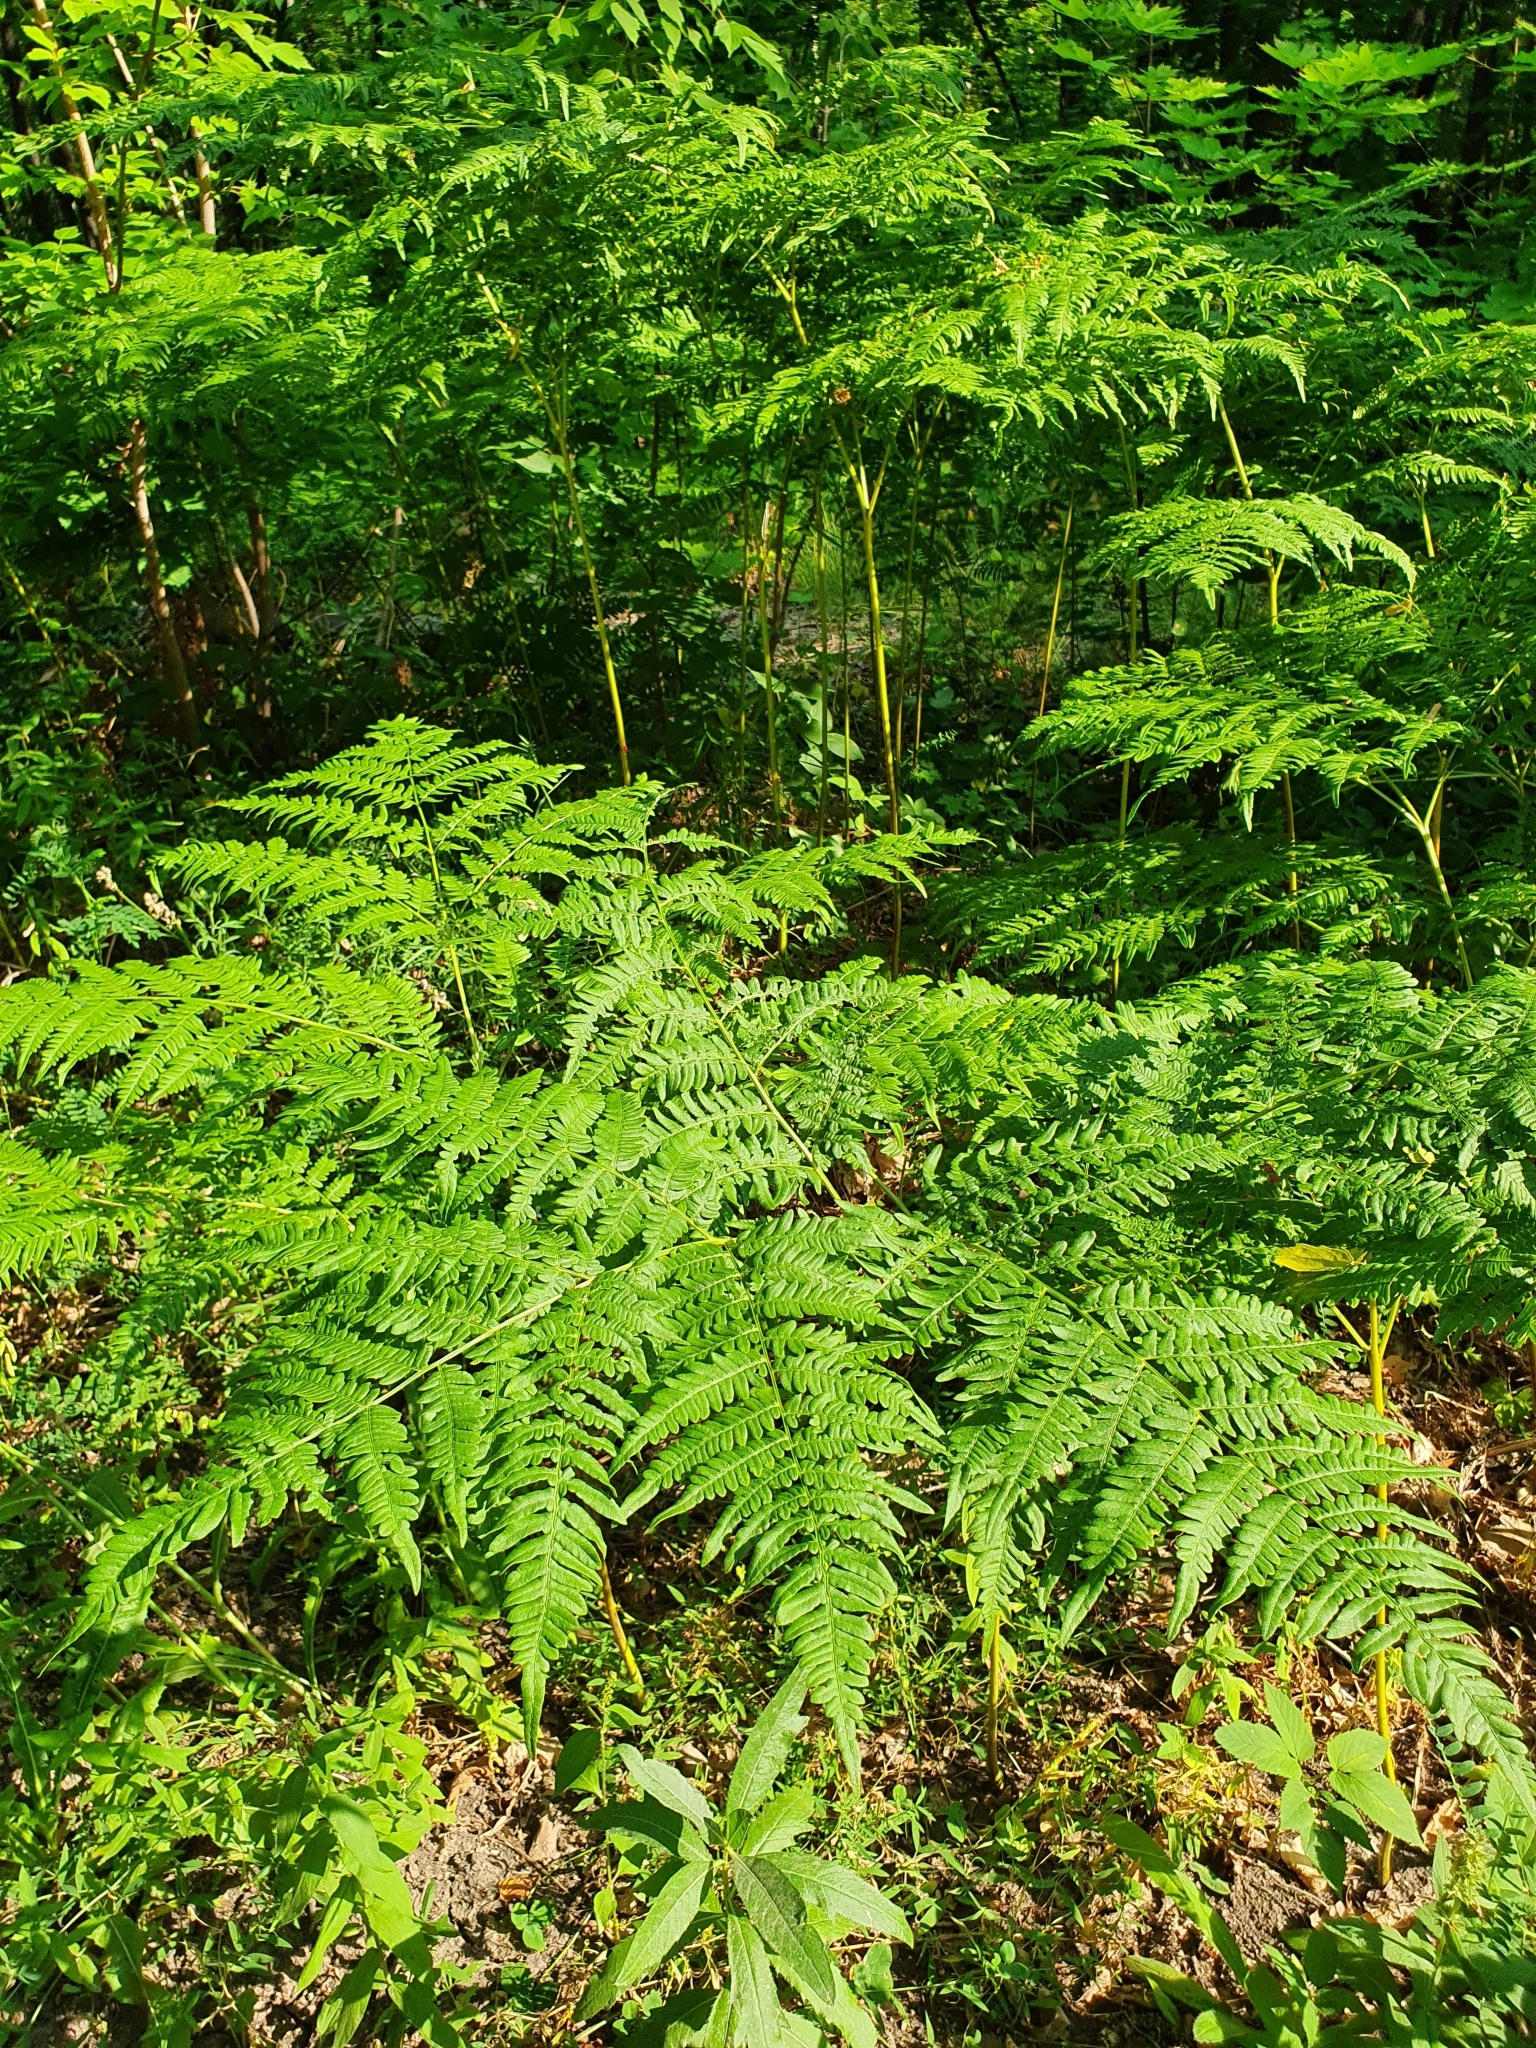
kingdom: Plantae
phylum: Tracheophyta
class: Polypodiopsida
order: Polypodiales
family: Dennstaedtiaceae
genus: Pteridium
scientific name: Pteridium aquilinum
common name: Bracken
